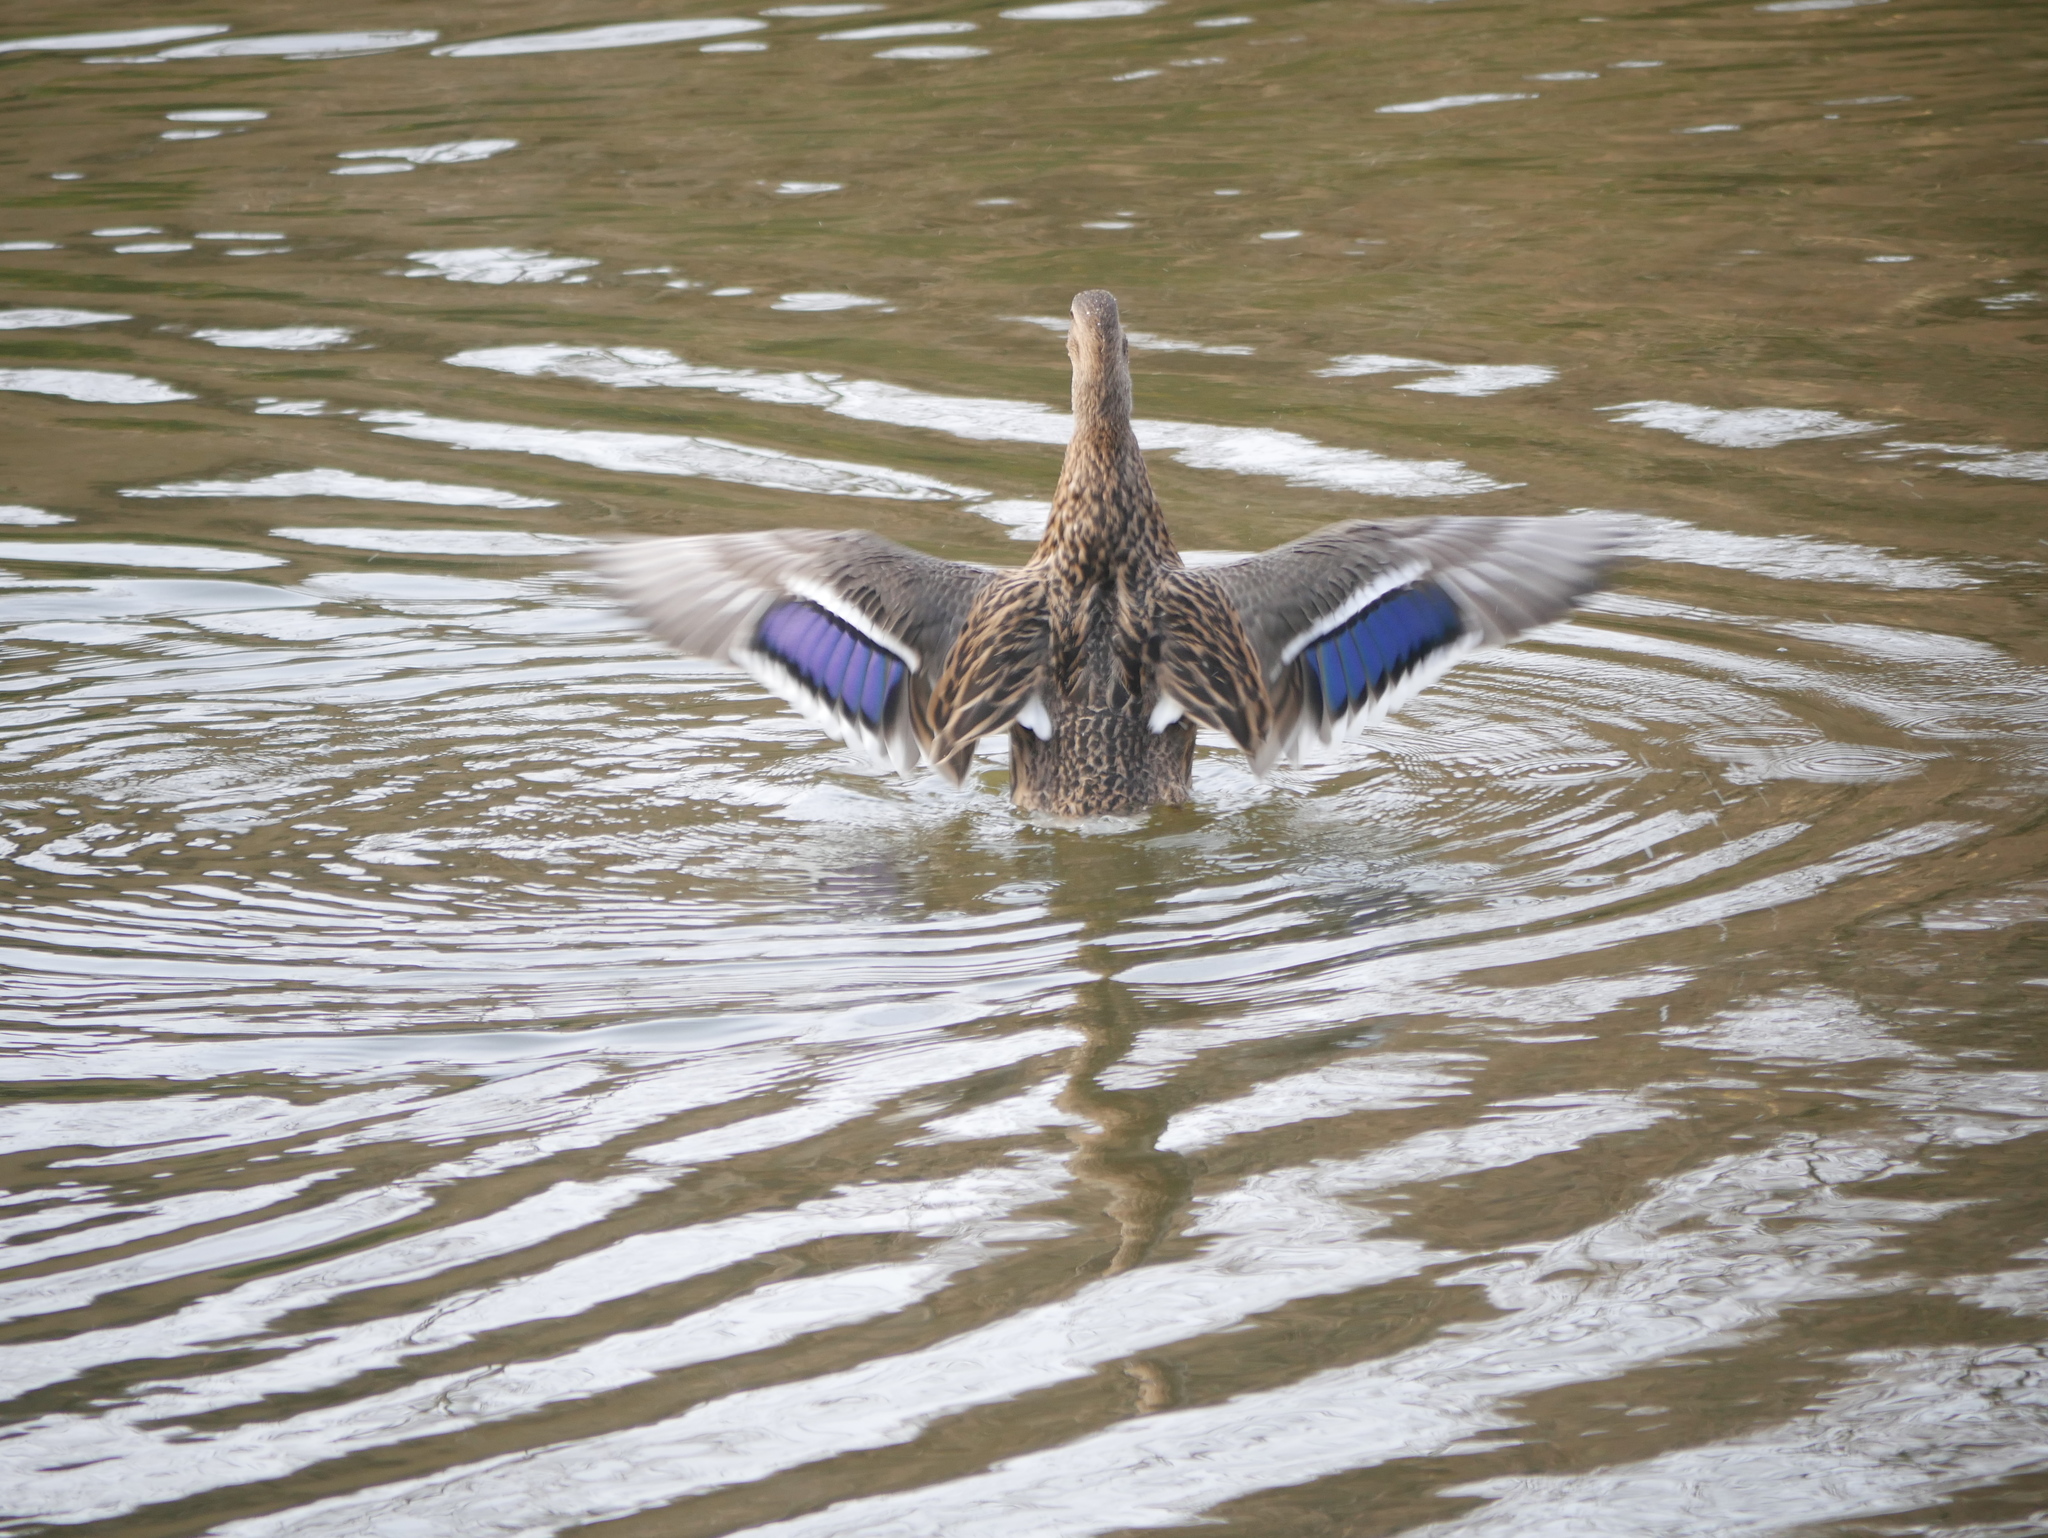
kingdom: Animalia
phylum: Chordata
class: Aves
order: Anseriformes
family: Anatidae
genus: Anas
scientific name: Anas platyrhynchos
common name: Mallard
